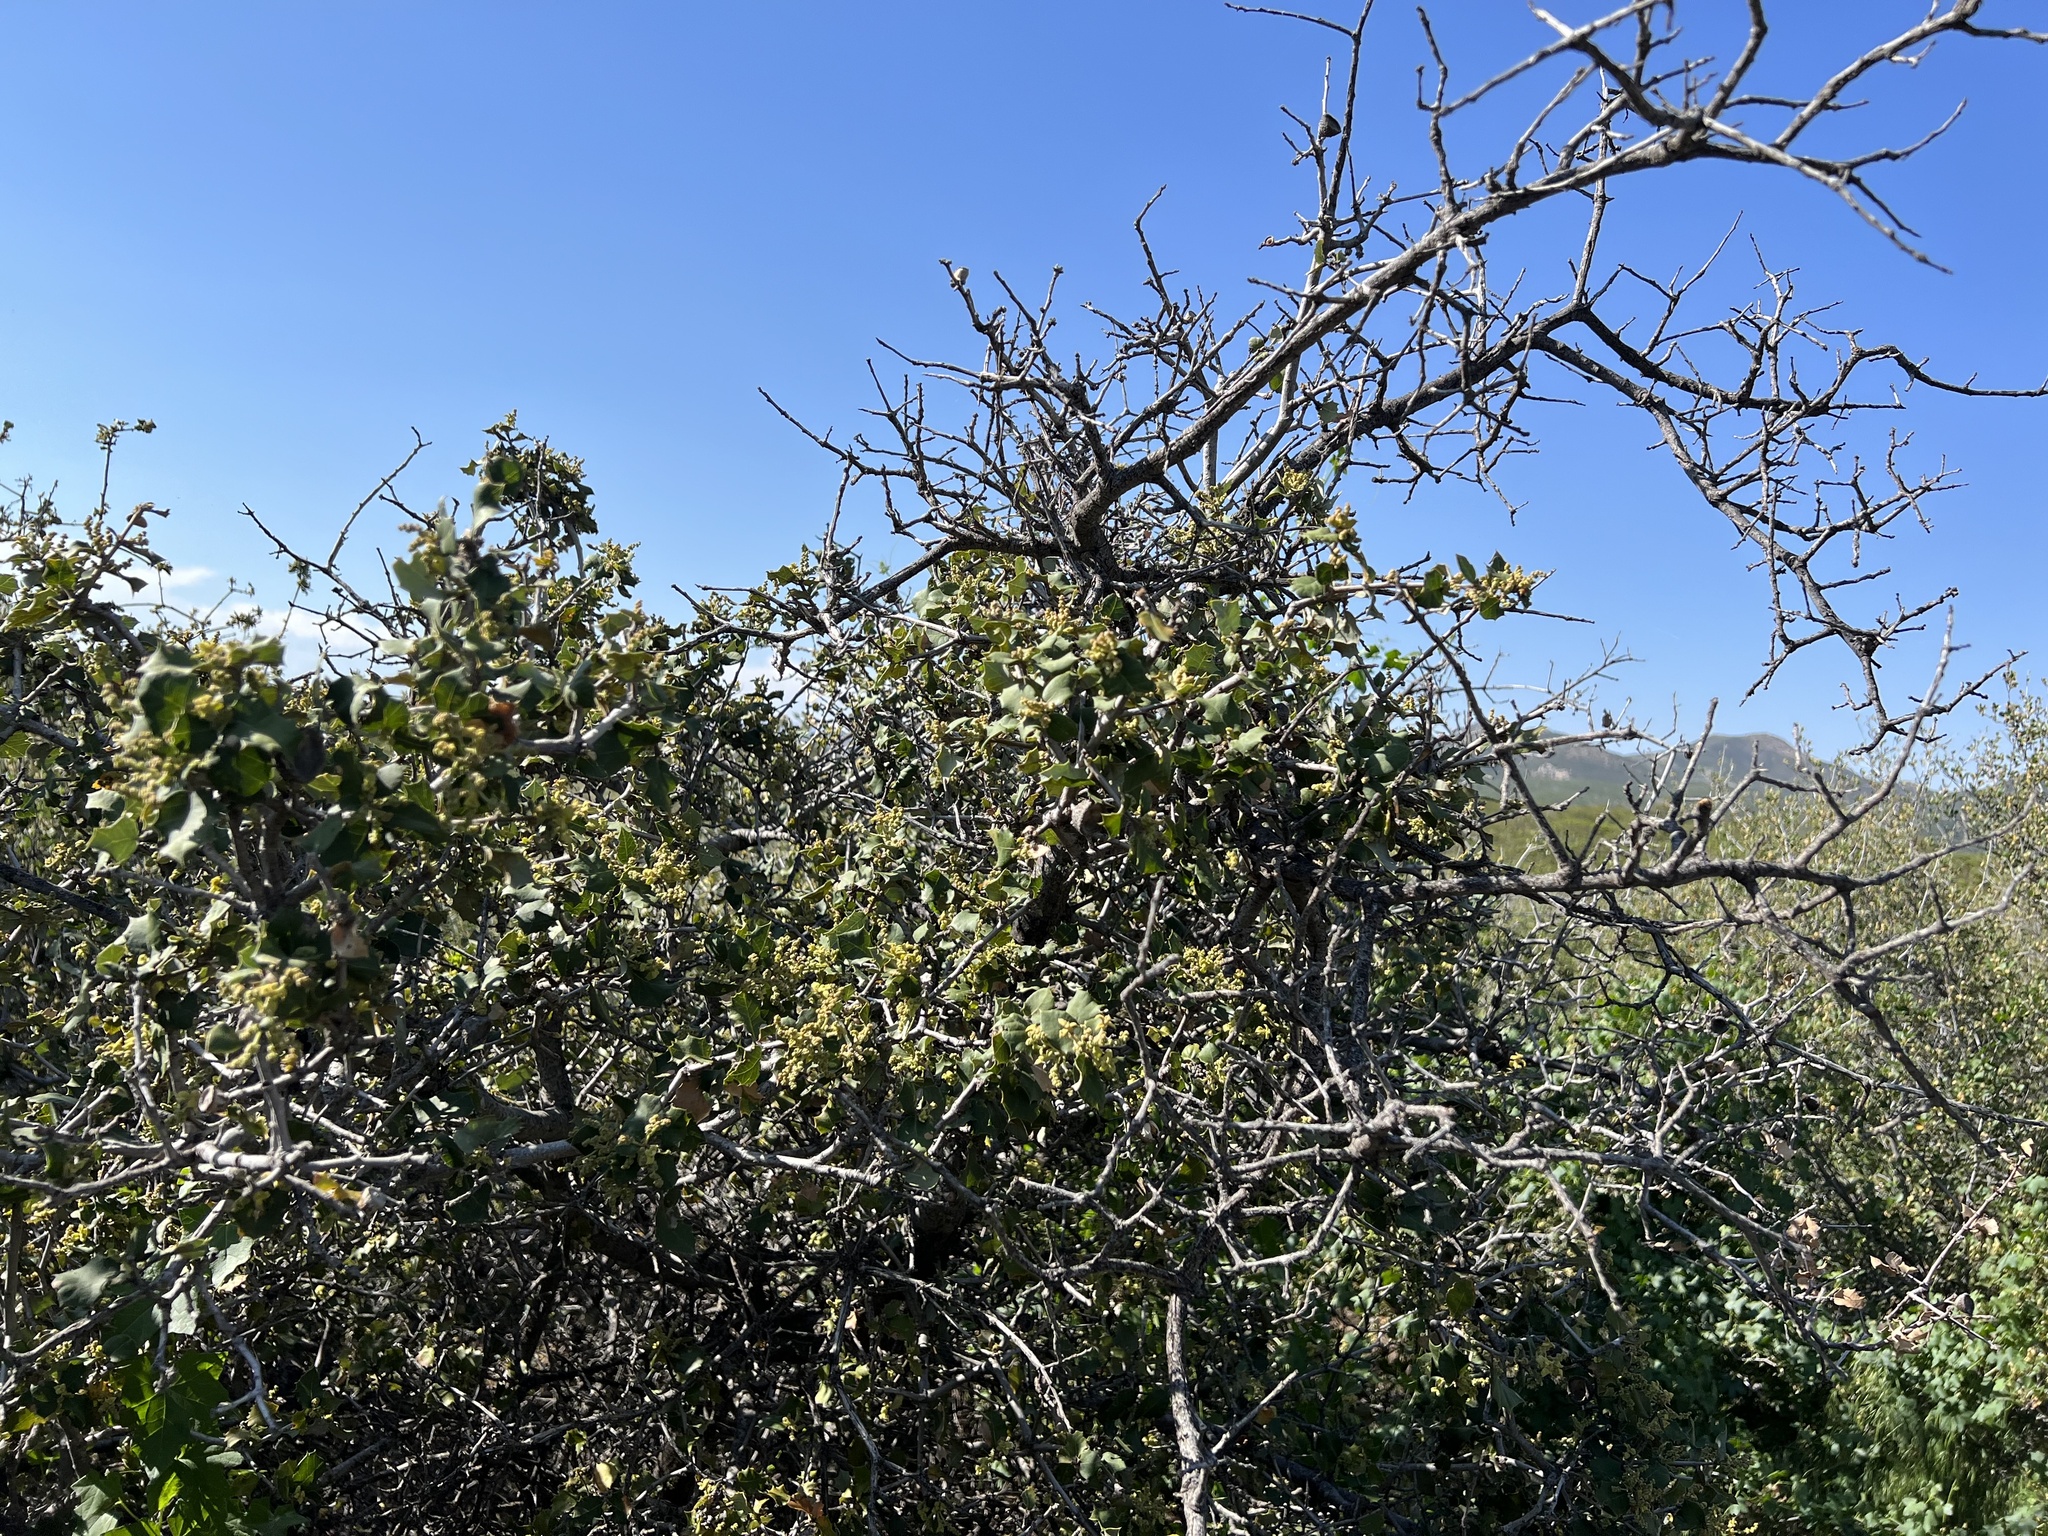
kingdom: Plantae
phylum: Tracheophyta
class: Magnoliopsida
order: Fagales
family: Fagaceae
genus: Quercus
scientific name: Quercus palmeri
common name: Dunn oak
